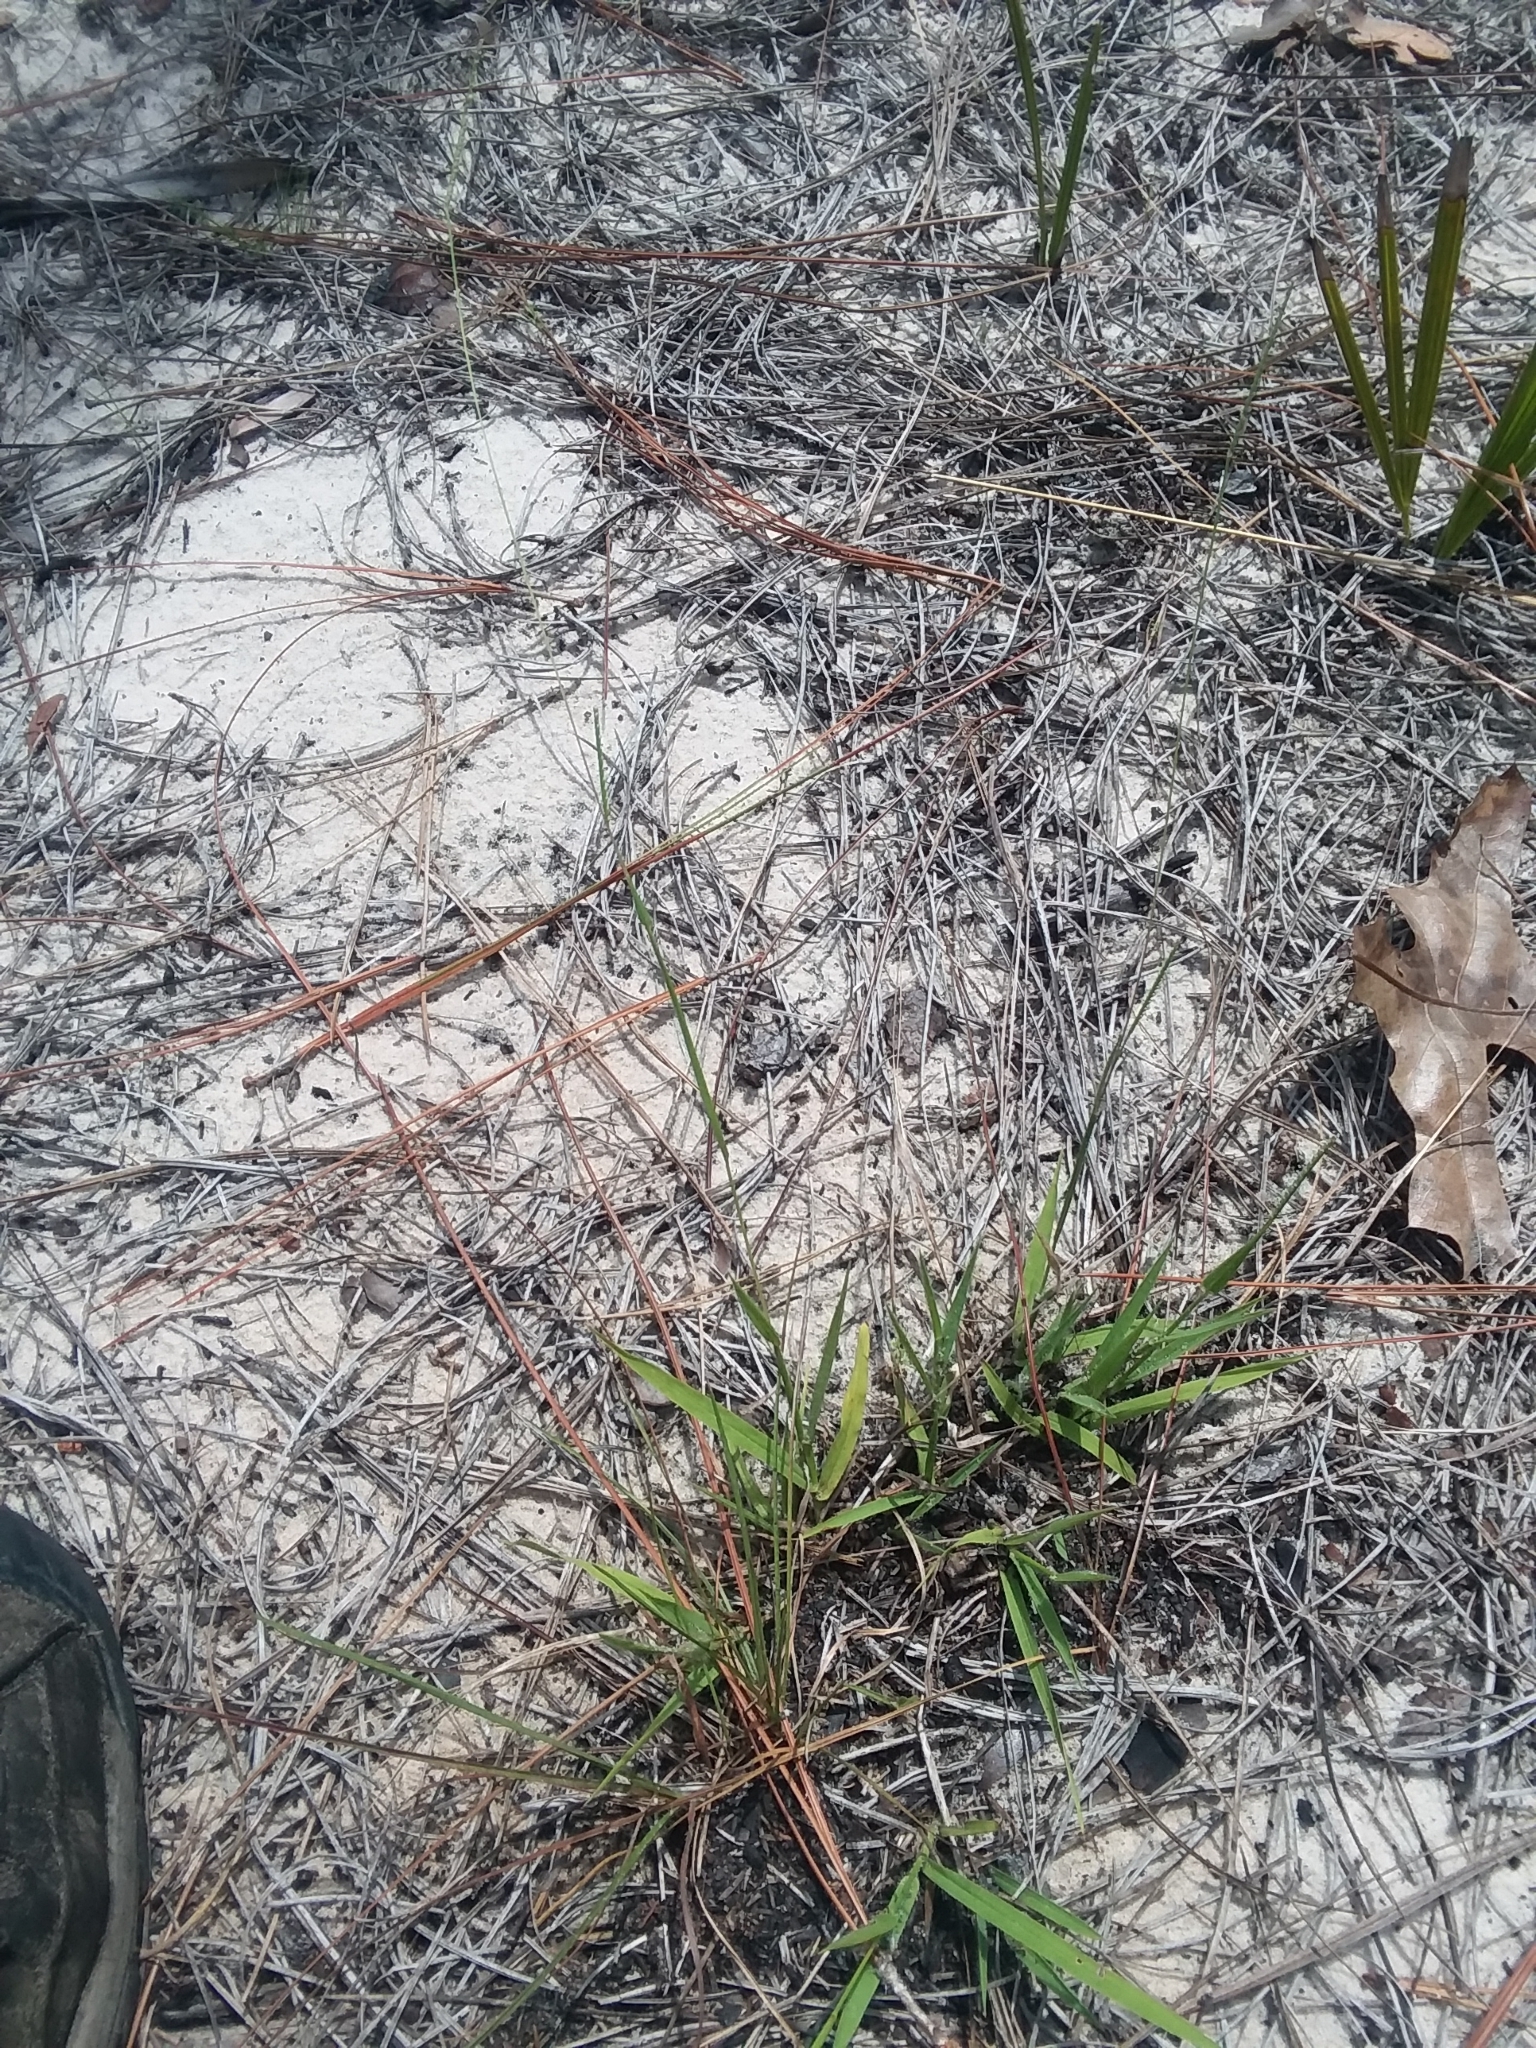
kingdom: Plantae
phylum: Tracheophyta
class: Liliopsida
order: Poales
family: Poaceae
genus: Paspalum
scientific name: Paspalum setaceum
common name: Slender paspalum
